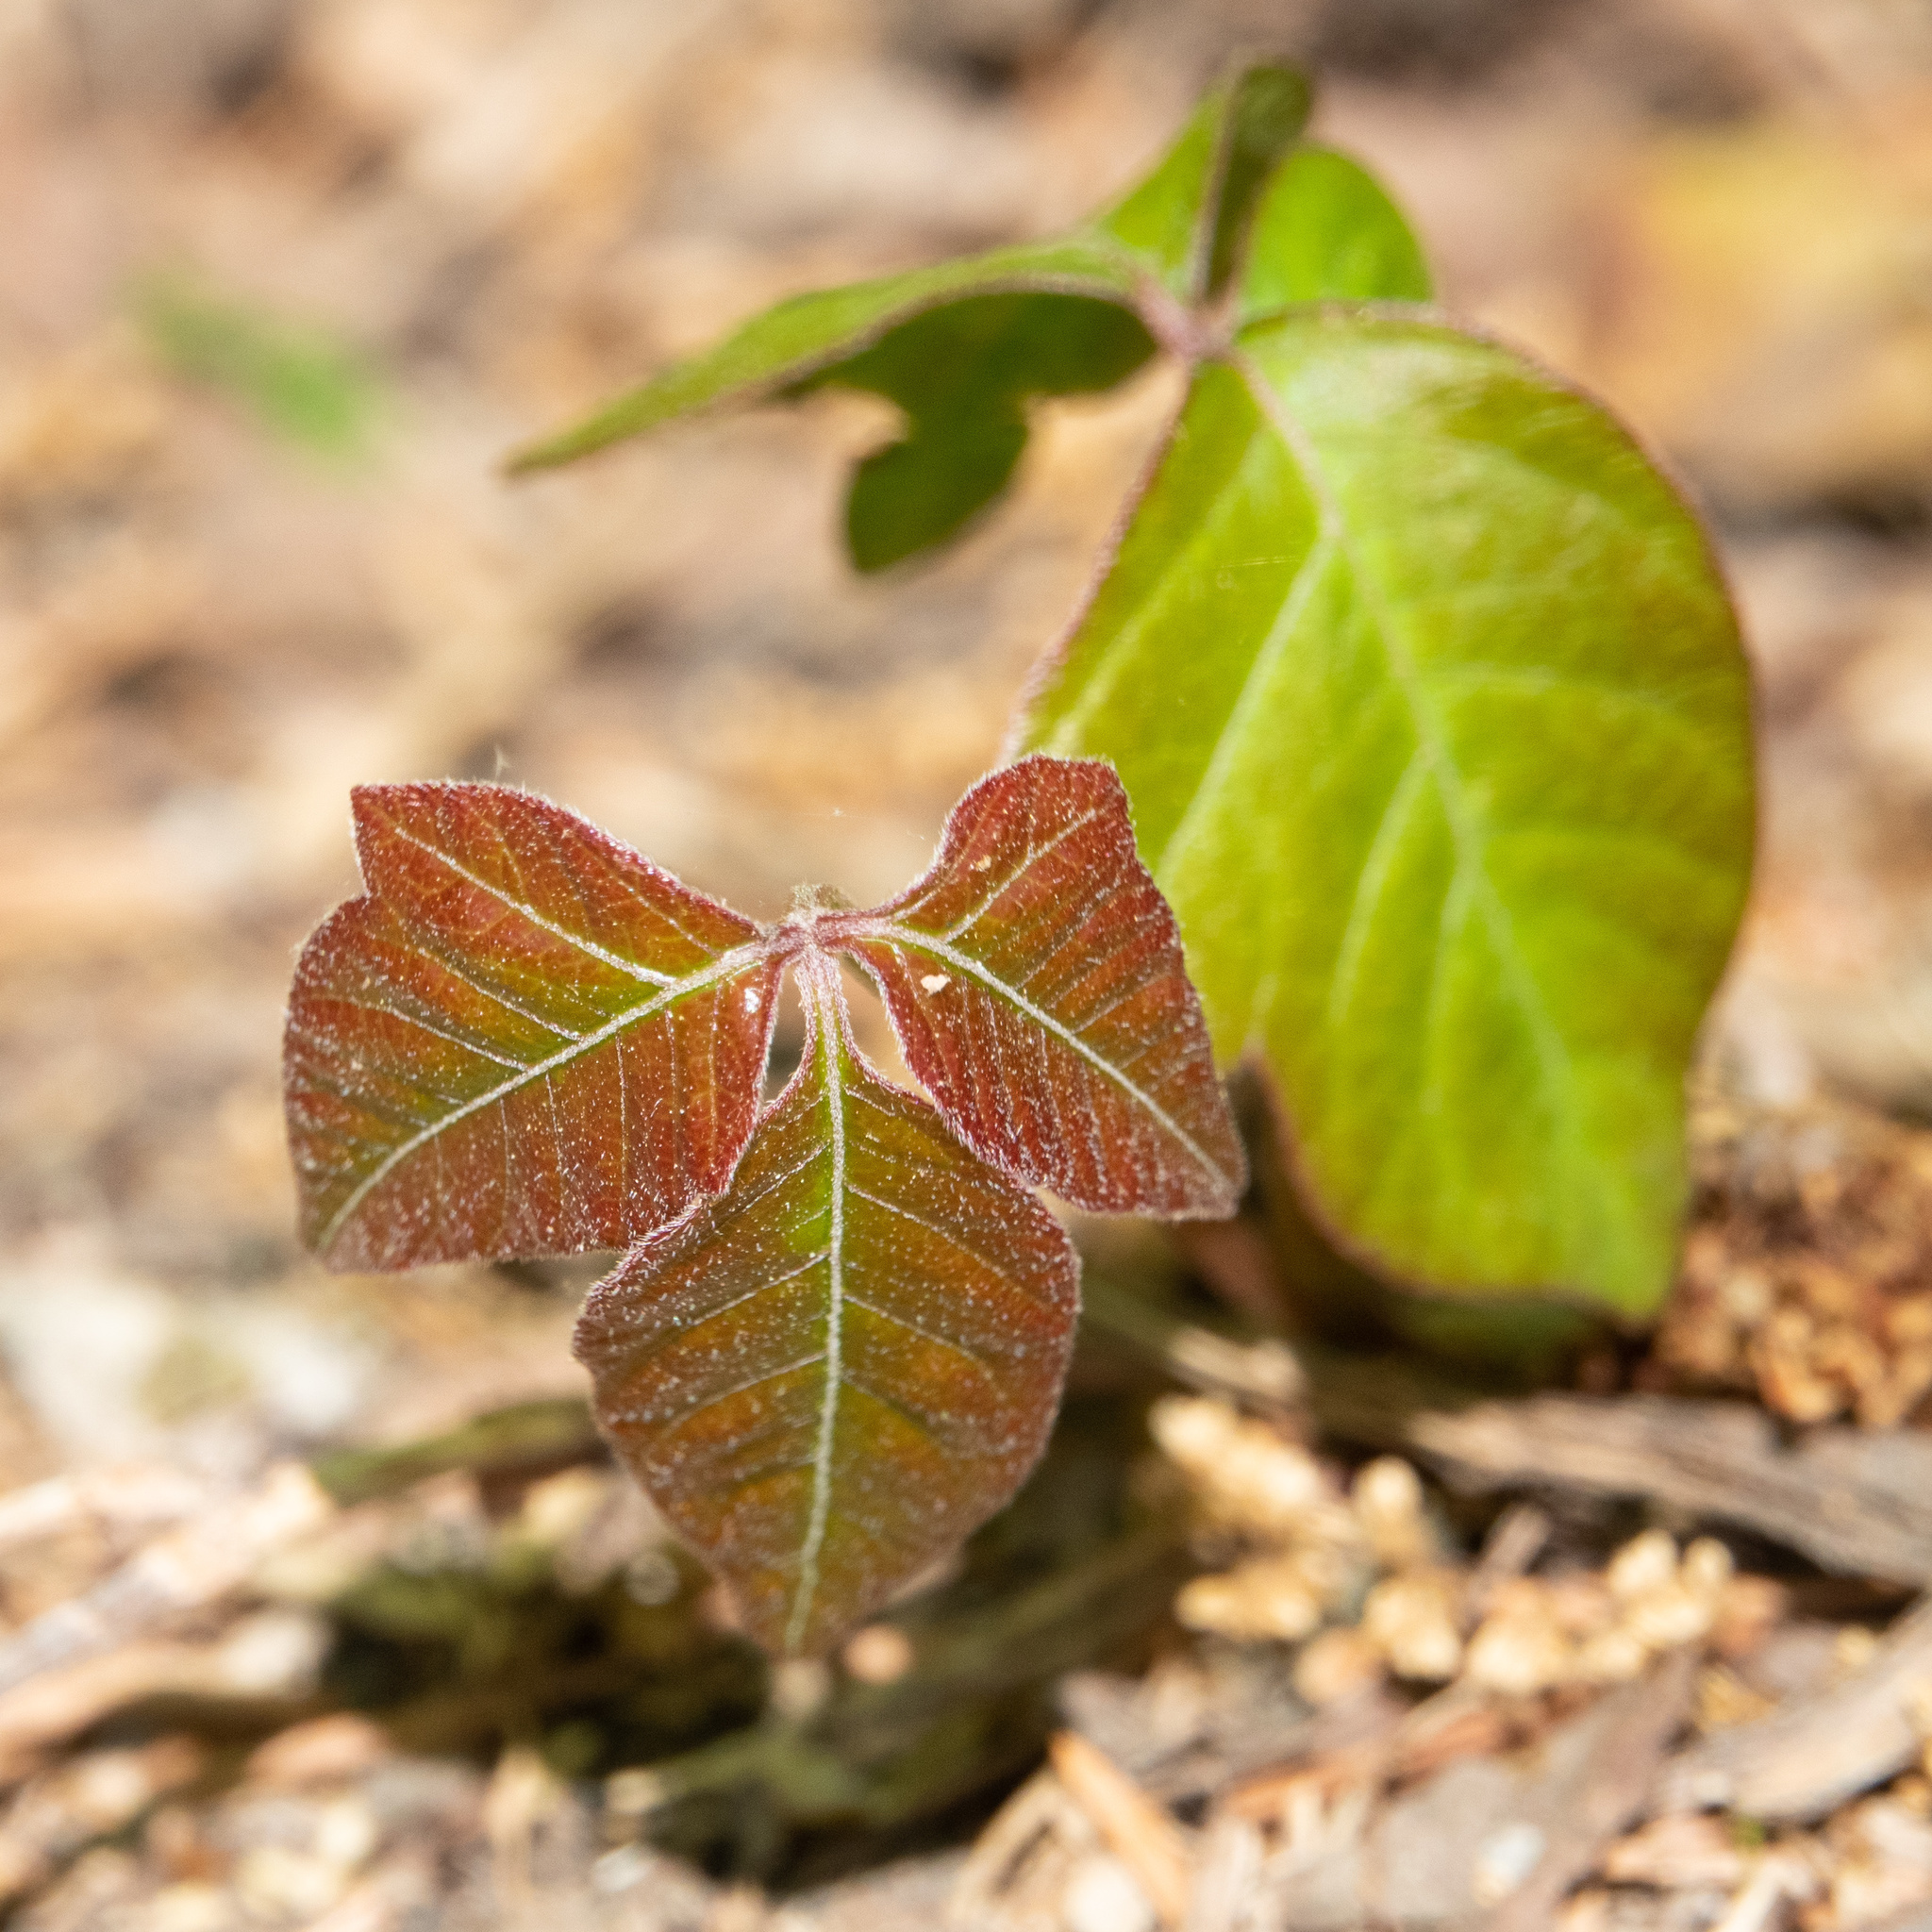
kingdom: Plantae
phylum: Tracheophyta
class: Magnoliopsida
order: Sapindales
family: Anacardiaceae
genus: Toxicodendron
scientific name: Toxicodendron radicans
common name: Poison ivy
